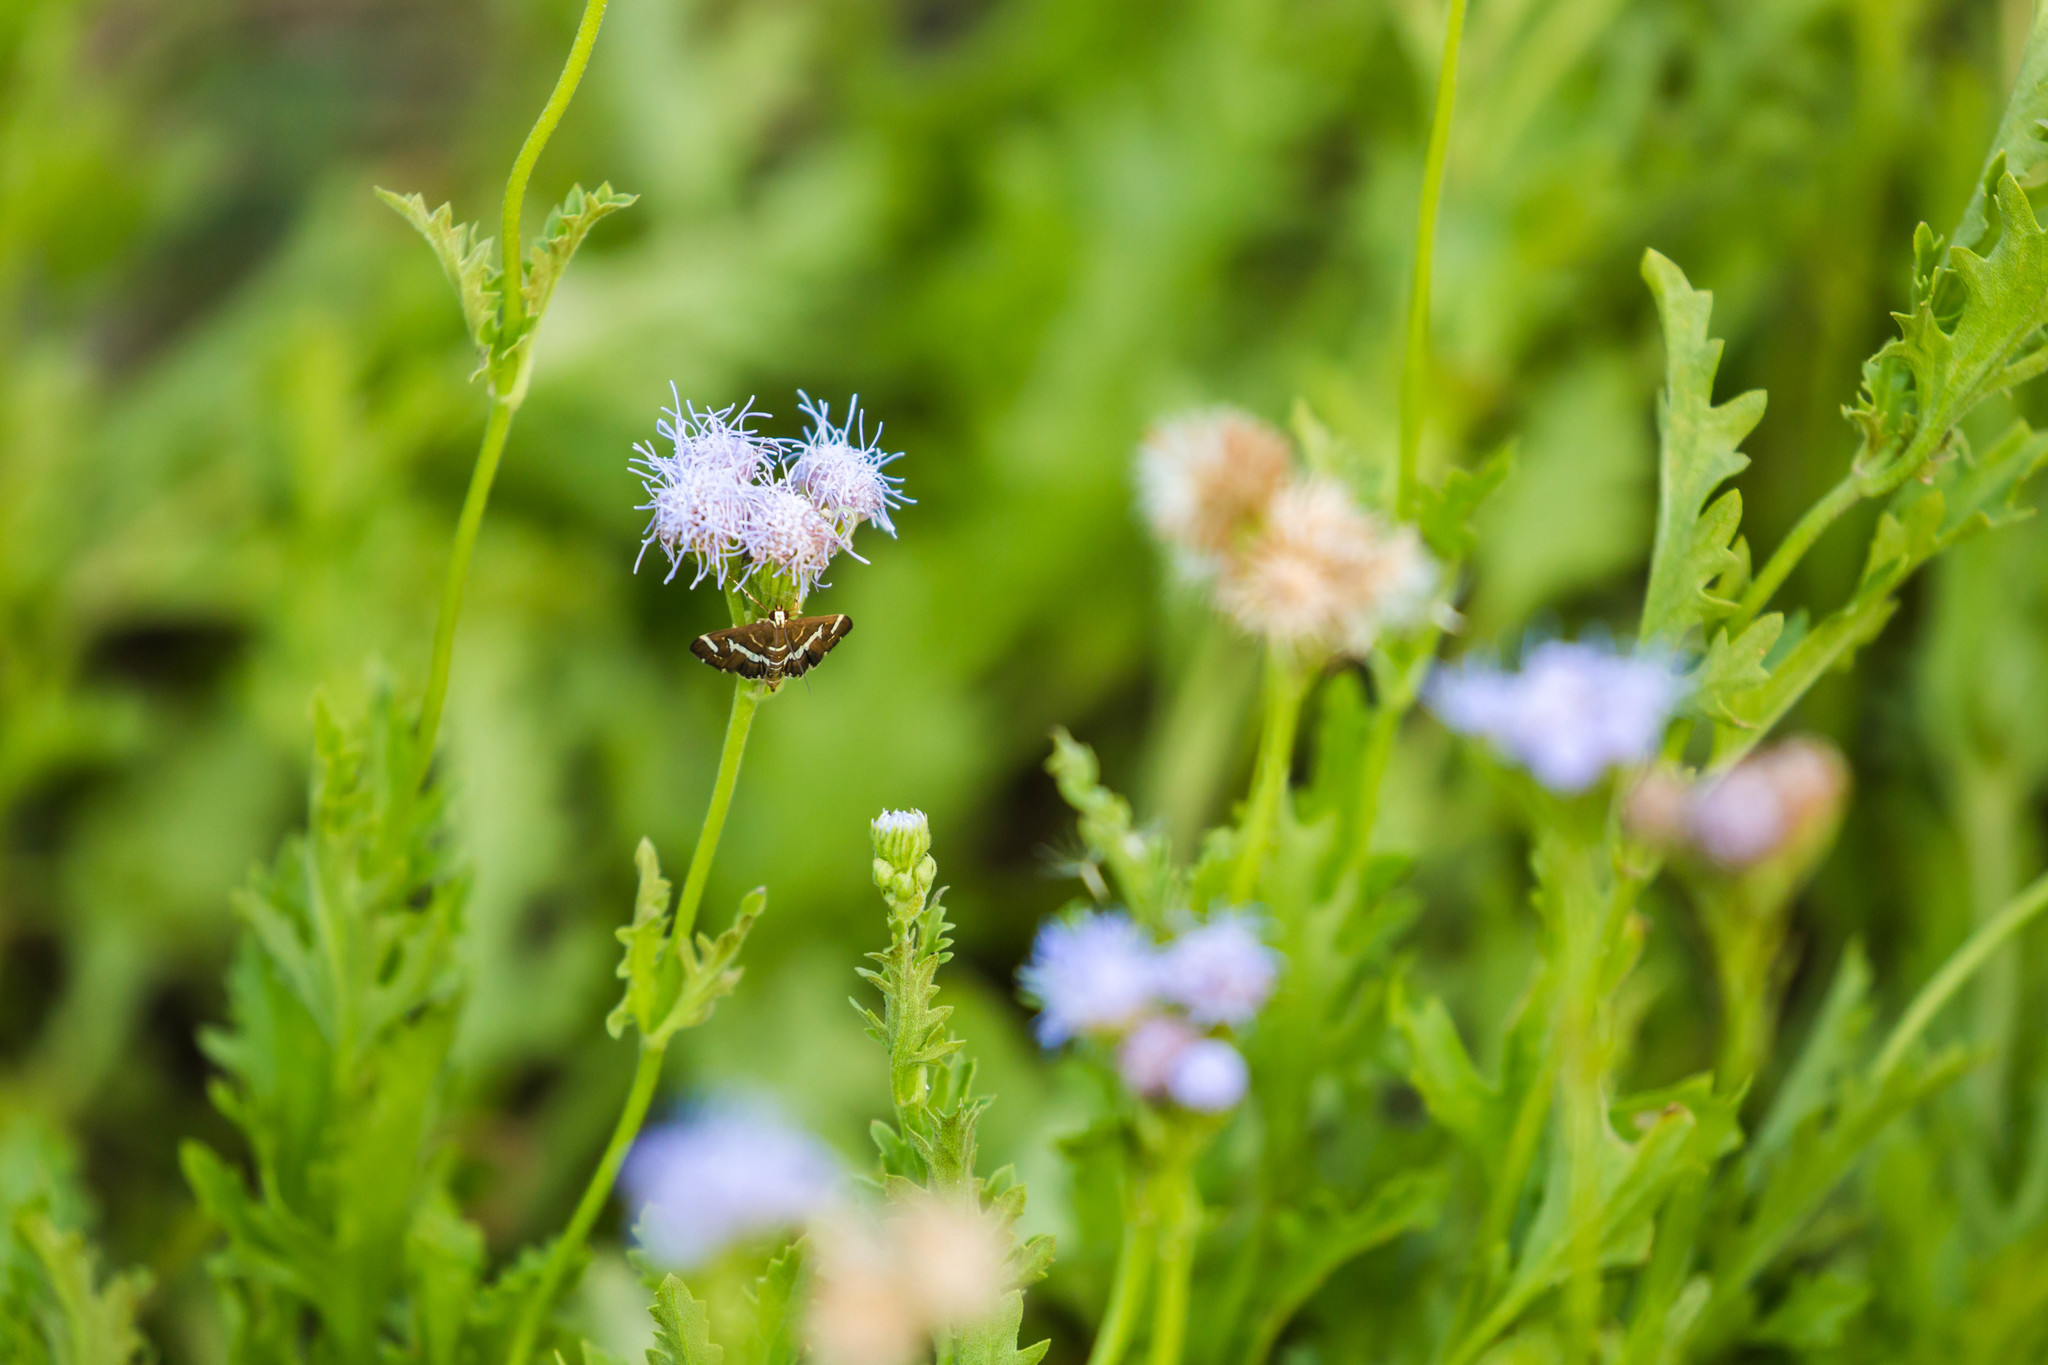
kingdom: Animalia
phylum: Arthropoda
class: Insecta
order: Lepidoptera
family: Crambidae
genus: Spoladea
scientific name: Spoladea recurvalis
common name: Beet webworm moth
